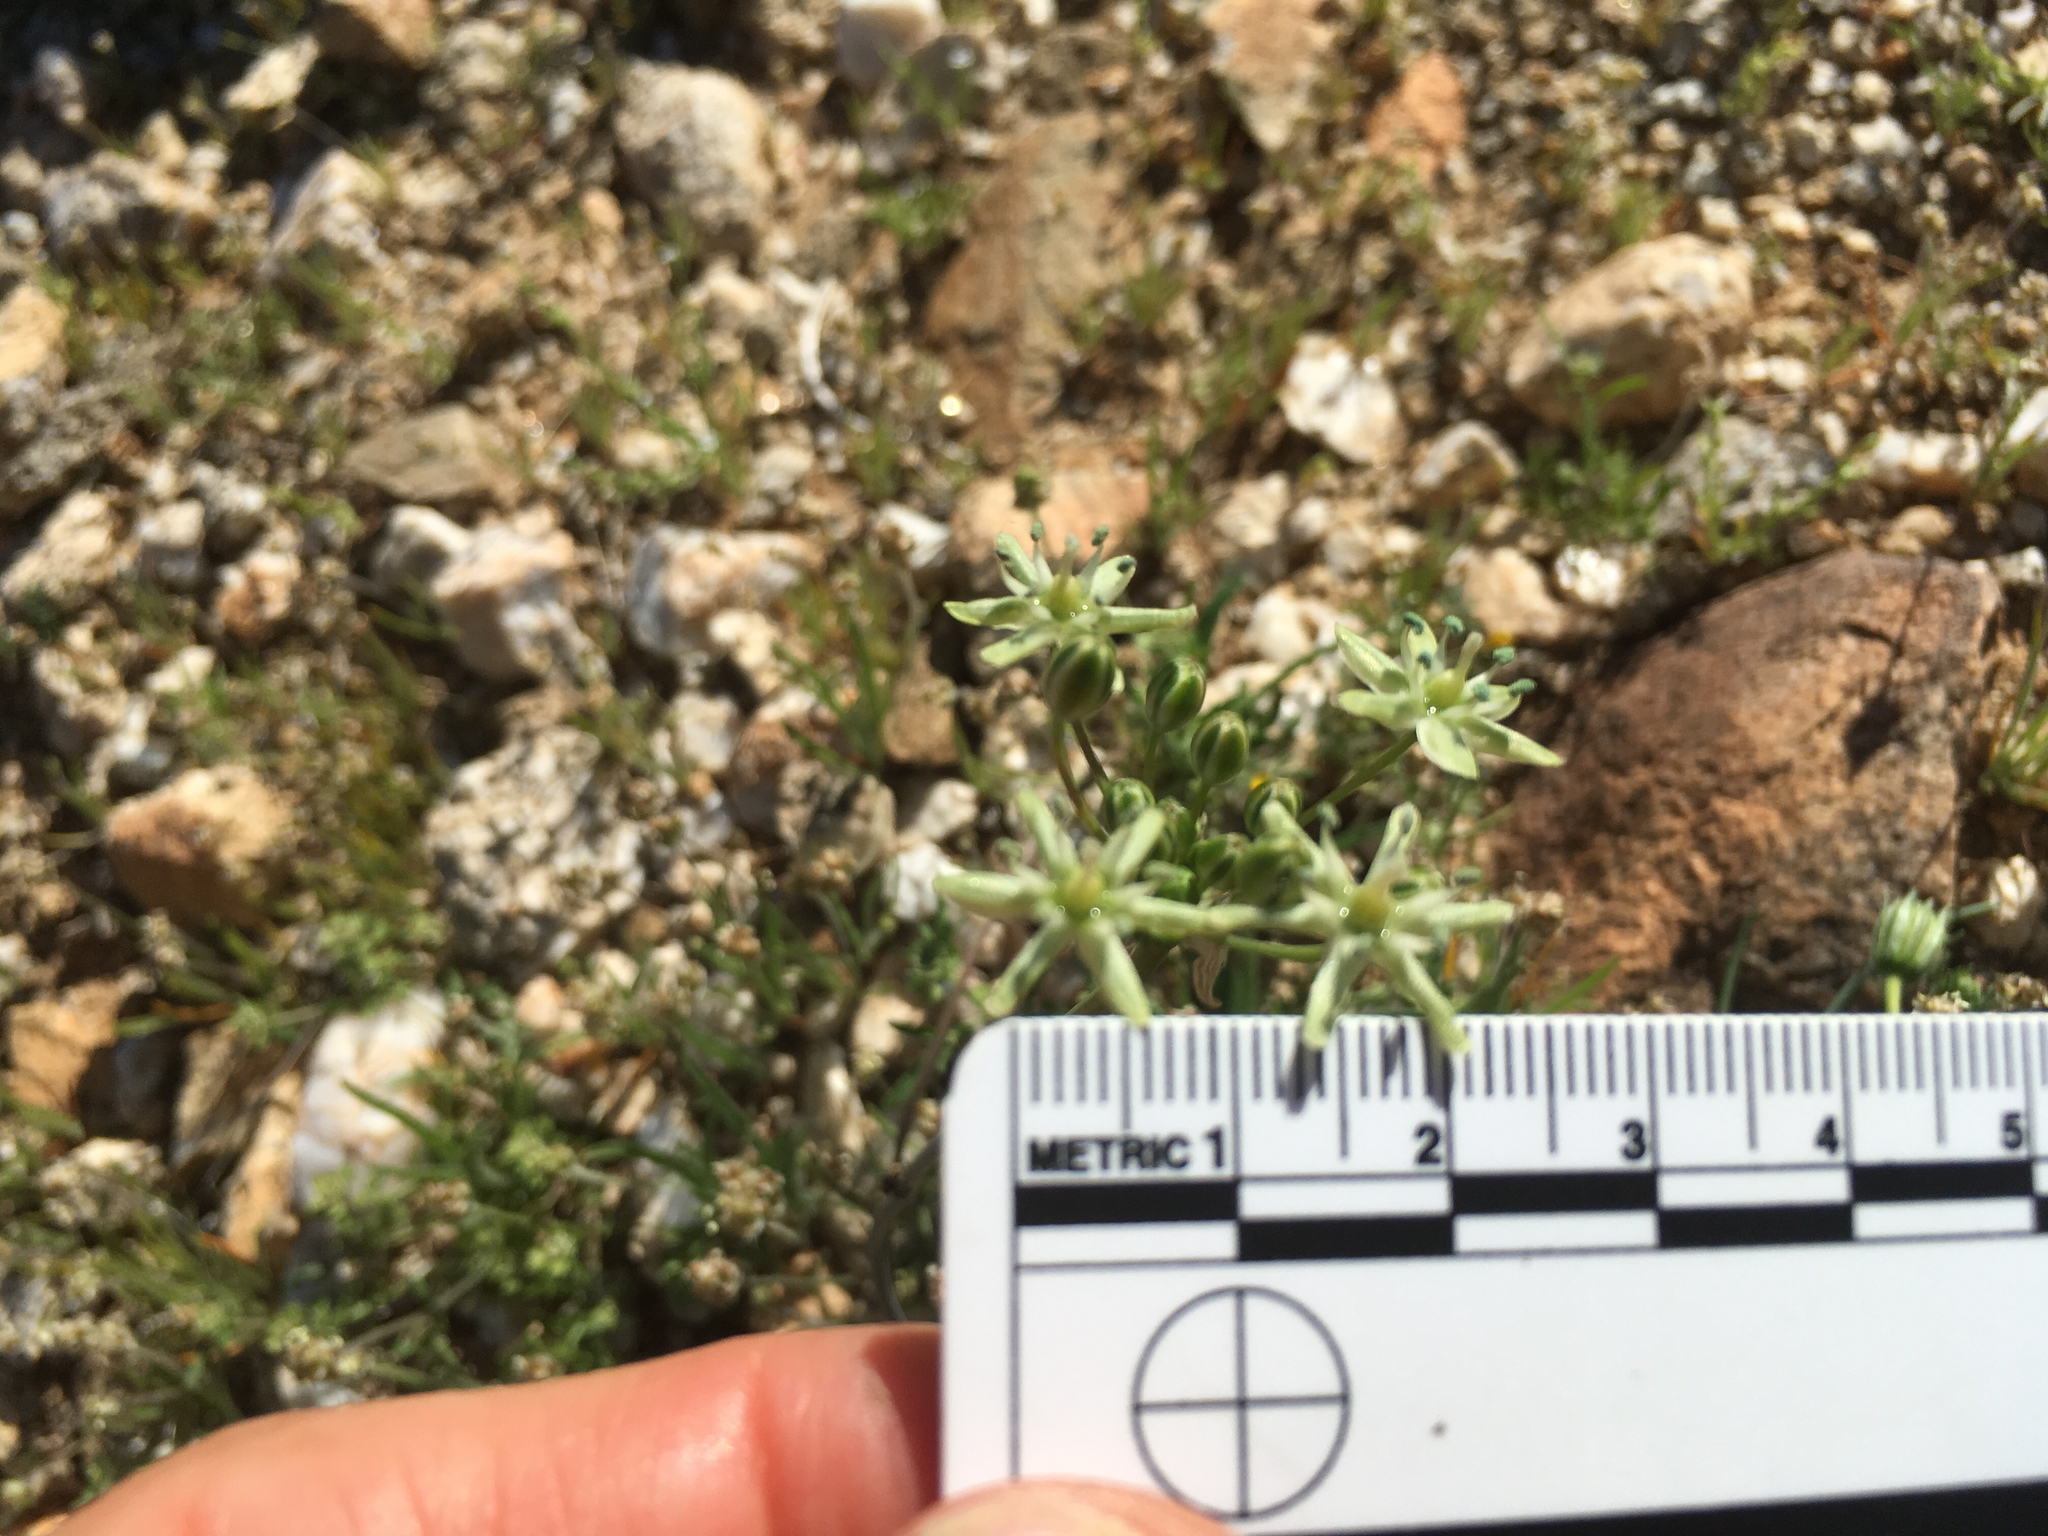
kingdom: Plantae
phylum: Tracheophyta
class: Liliopsida
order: Asparagales
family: Asparagaceae
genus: Muilla
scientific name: Muilla maritima
